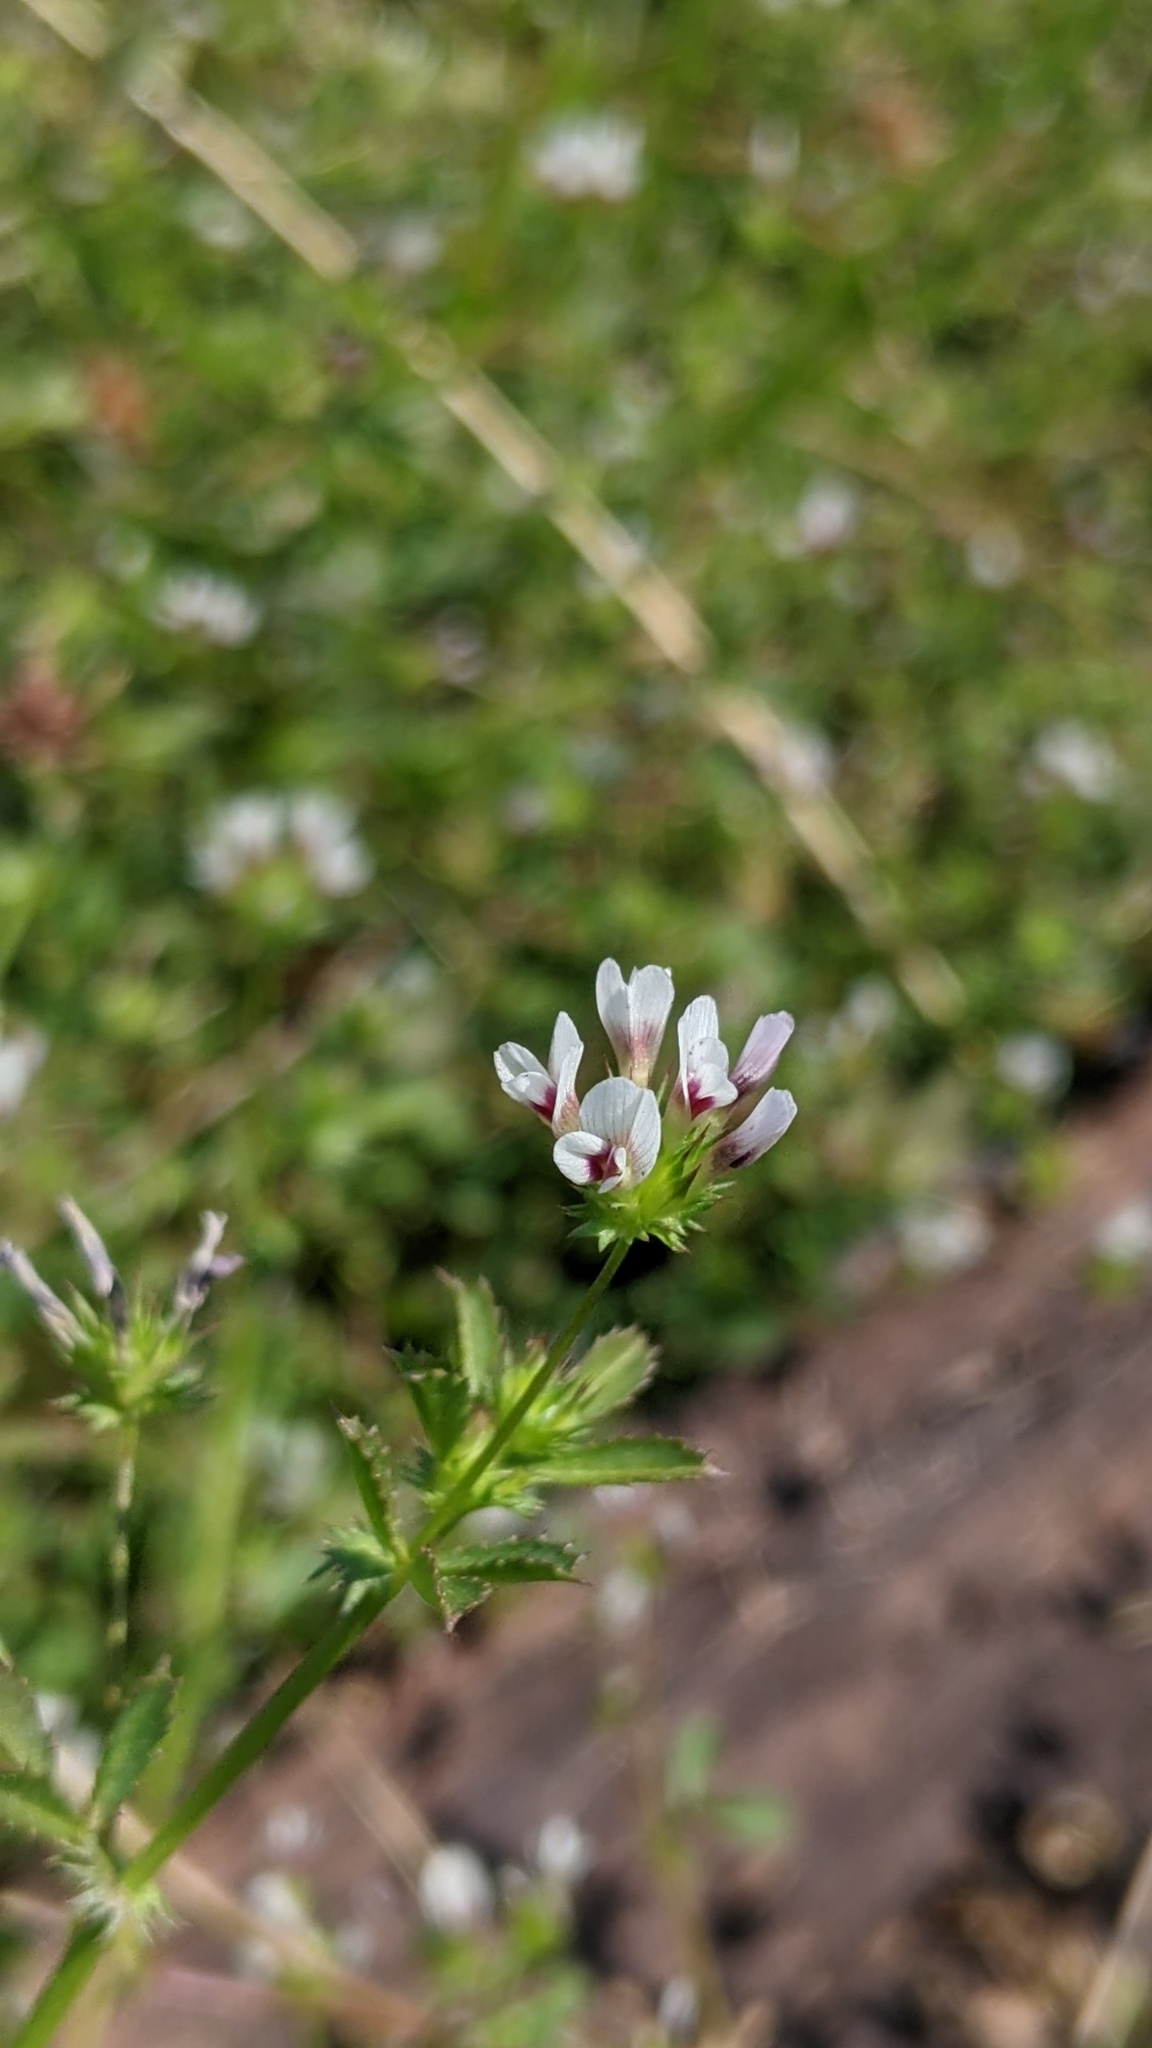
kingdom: Plantae
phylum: Tracheophyta
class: Magnoliopsida
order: Fabales
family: Fabaceae
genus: Trifolium
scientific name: Trifolium monanthum
